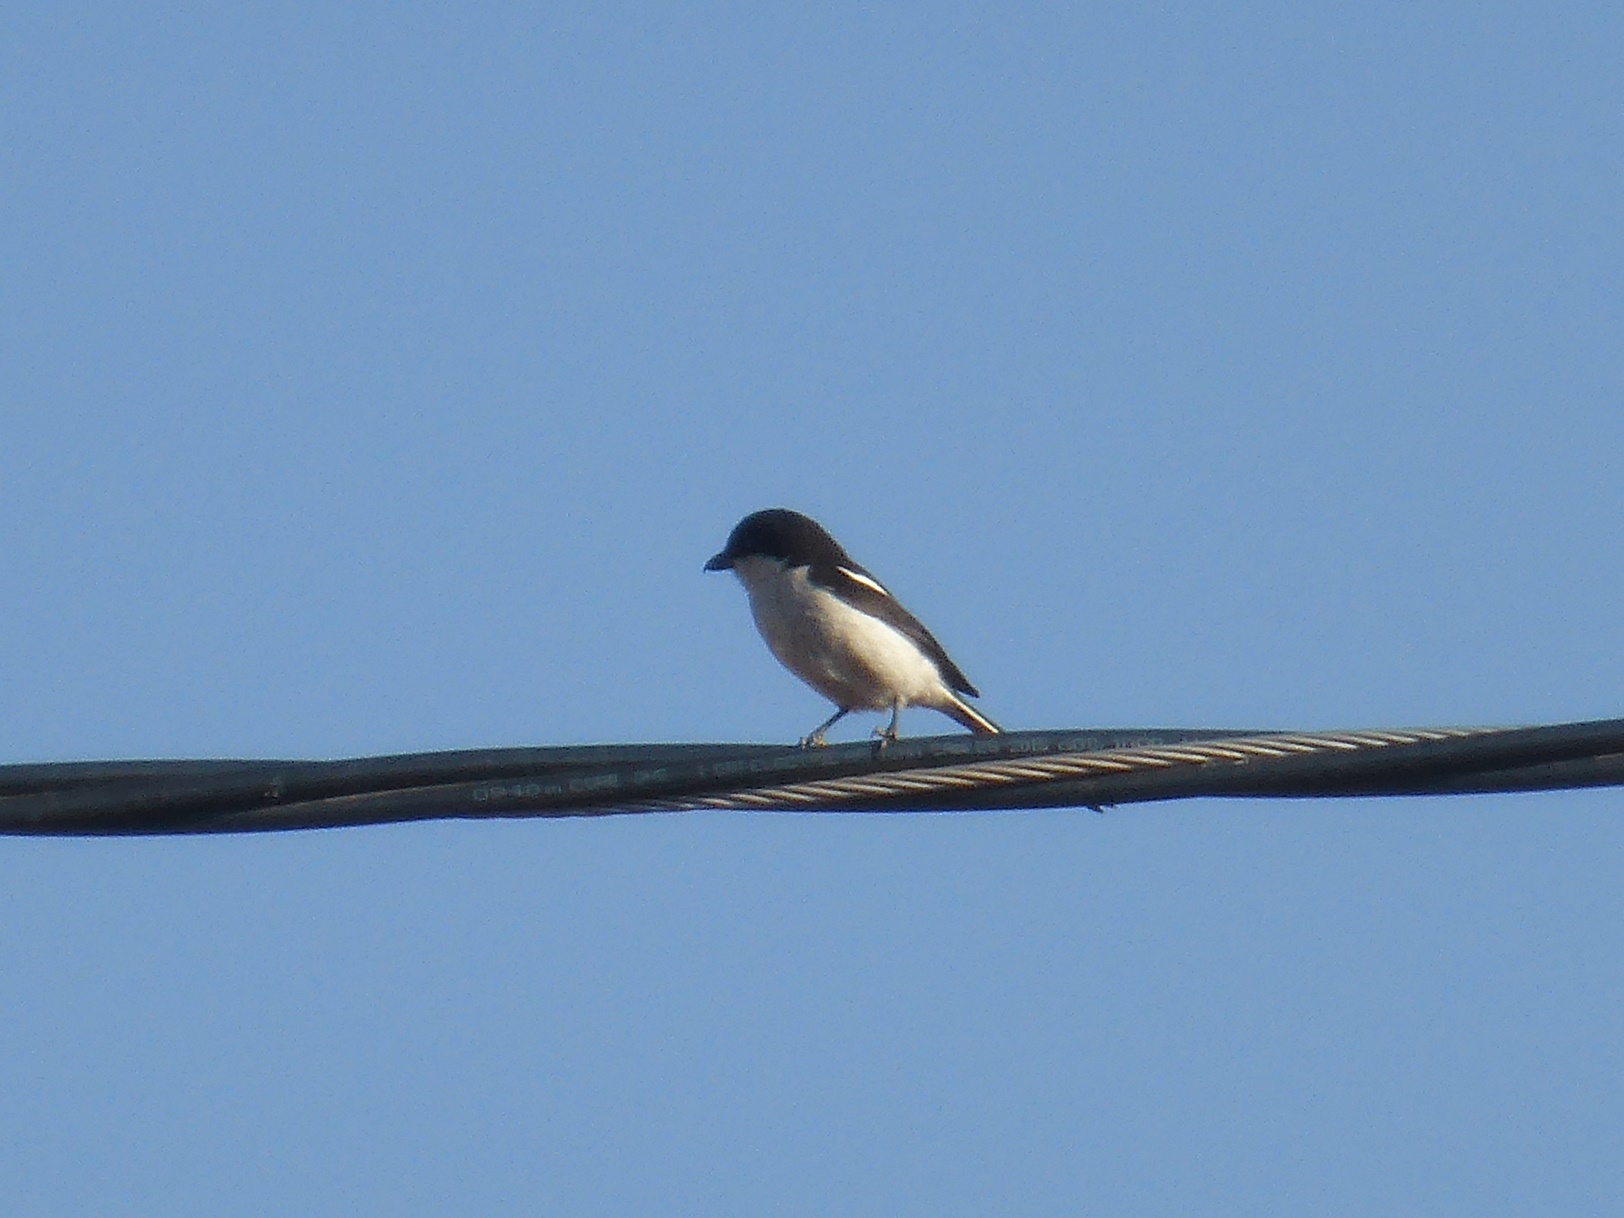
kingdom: Animalia
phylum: Chordata
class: Aves
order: Passeriformes
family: Laniidae
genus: Lanius
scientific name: Lanius collaris
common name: Southern fiscal
